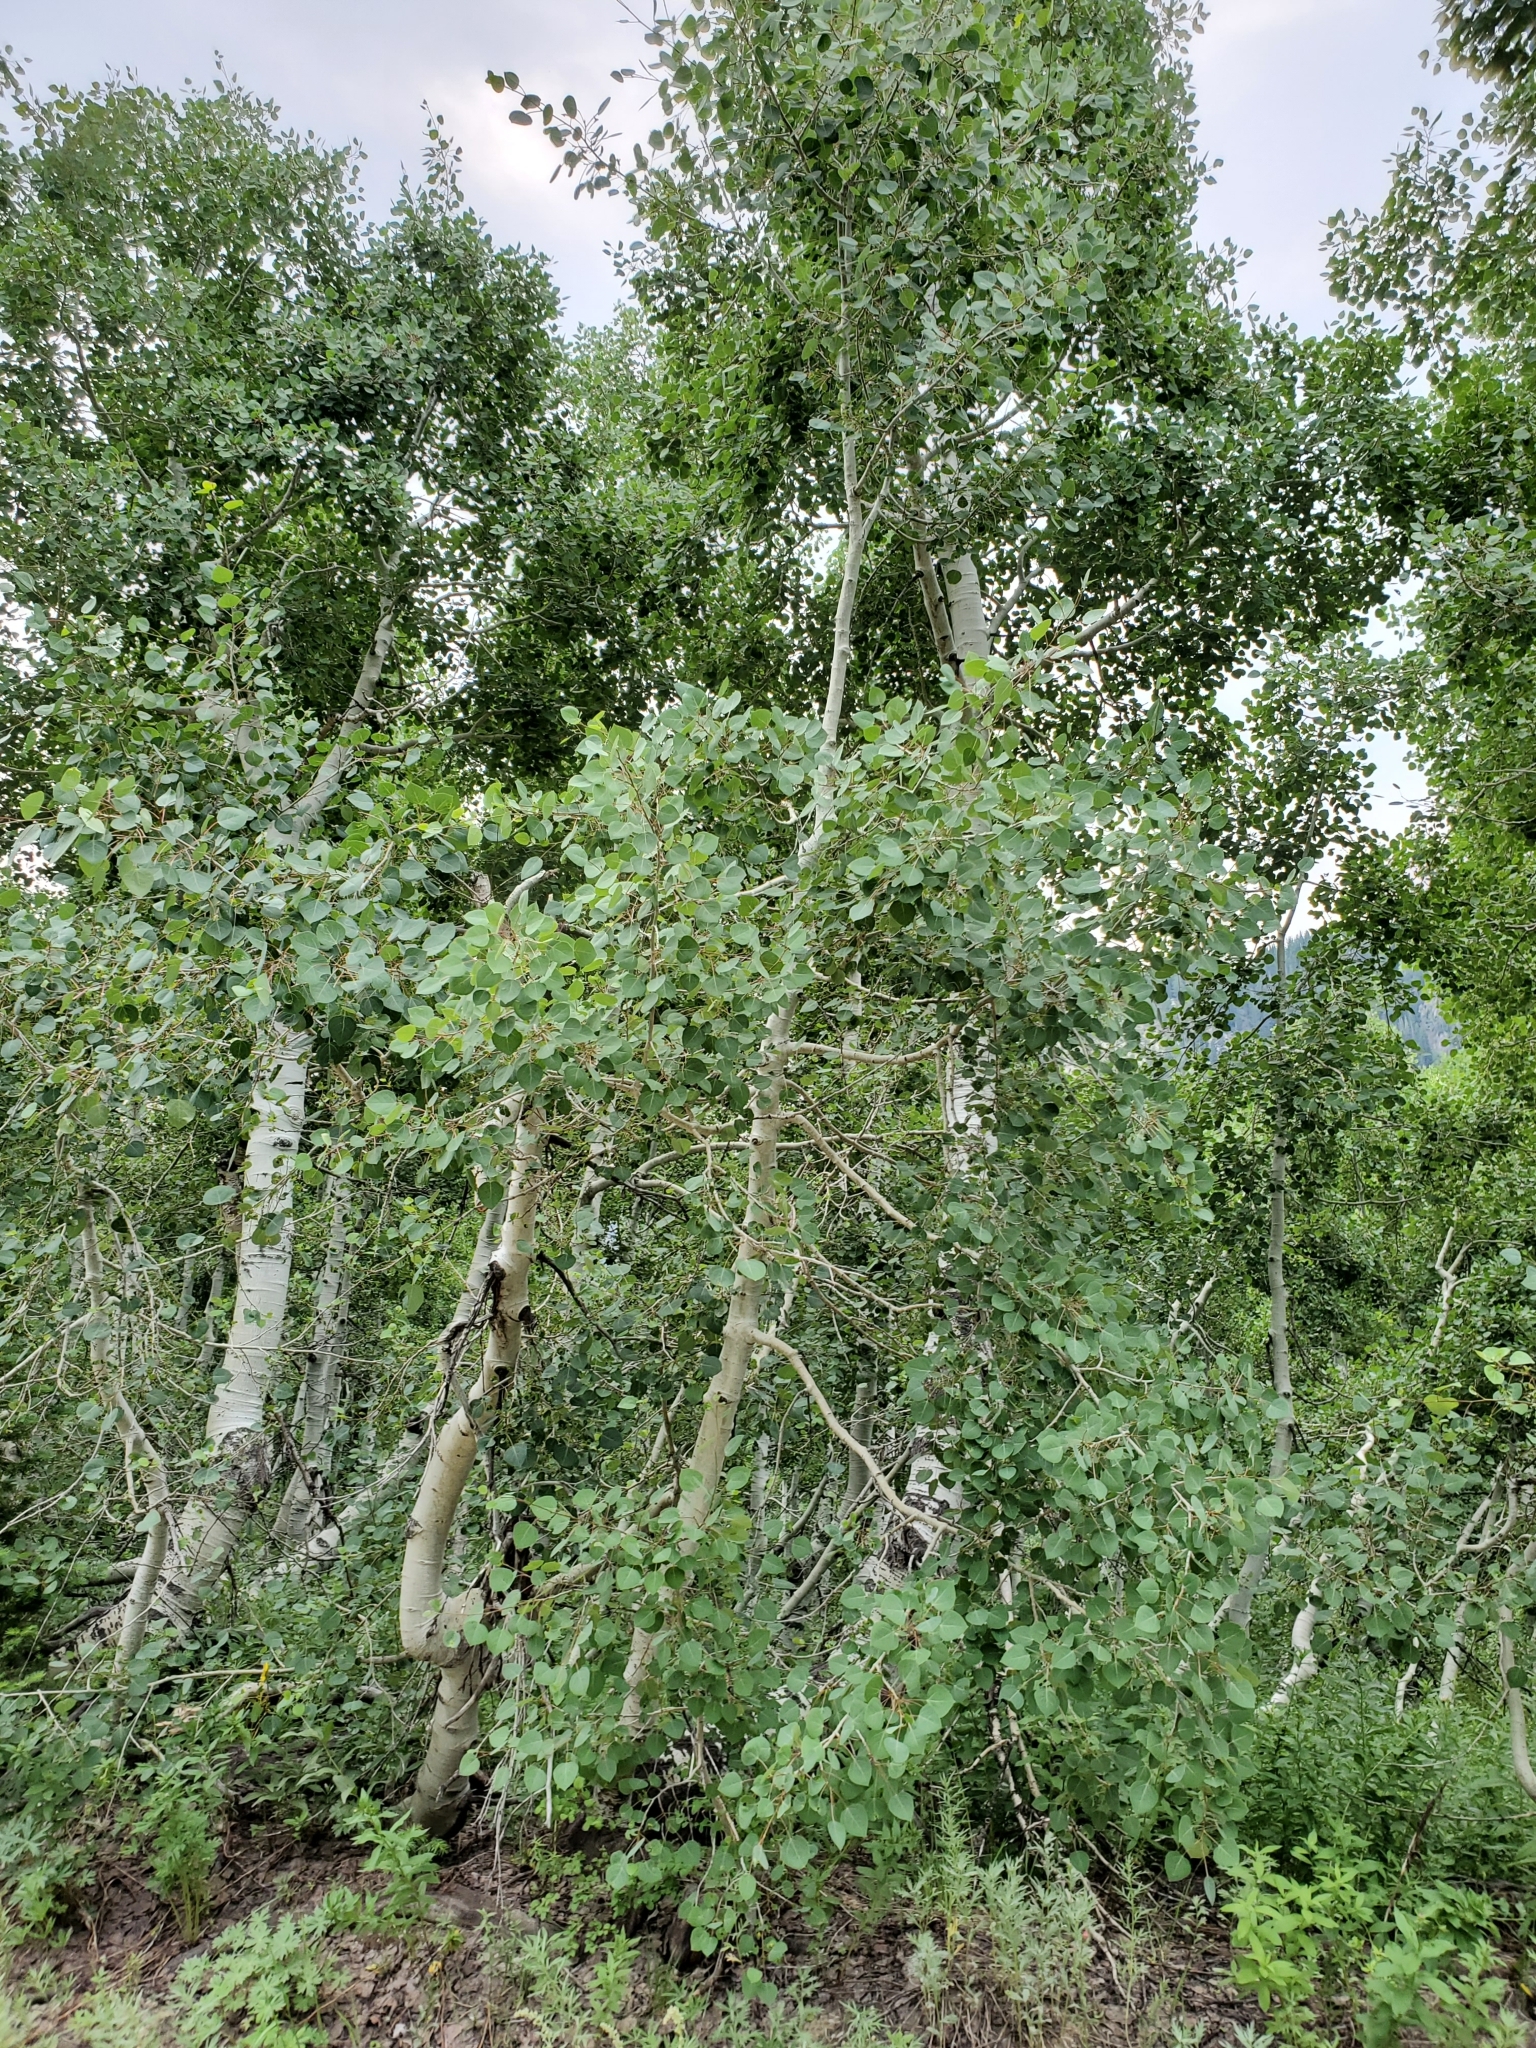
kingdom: Plantae
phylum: Tracheophyta
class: Magnoliopsida
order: Malpighiales
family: Salicaceae
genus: Populus
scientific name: Populus tremuloides
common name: Quaking aspen
